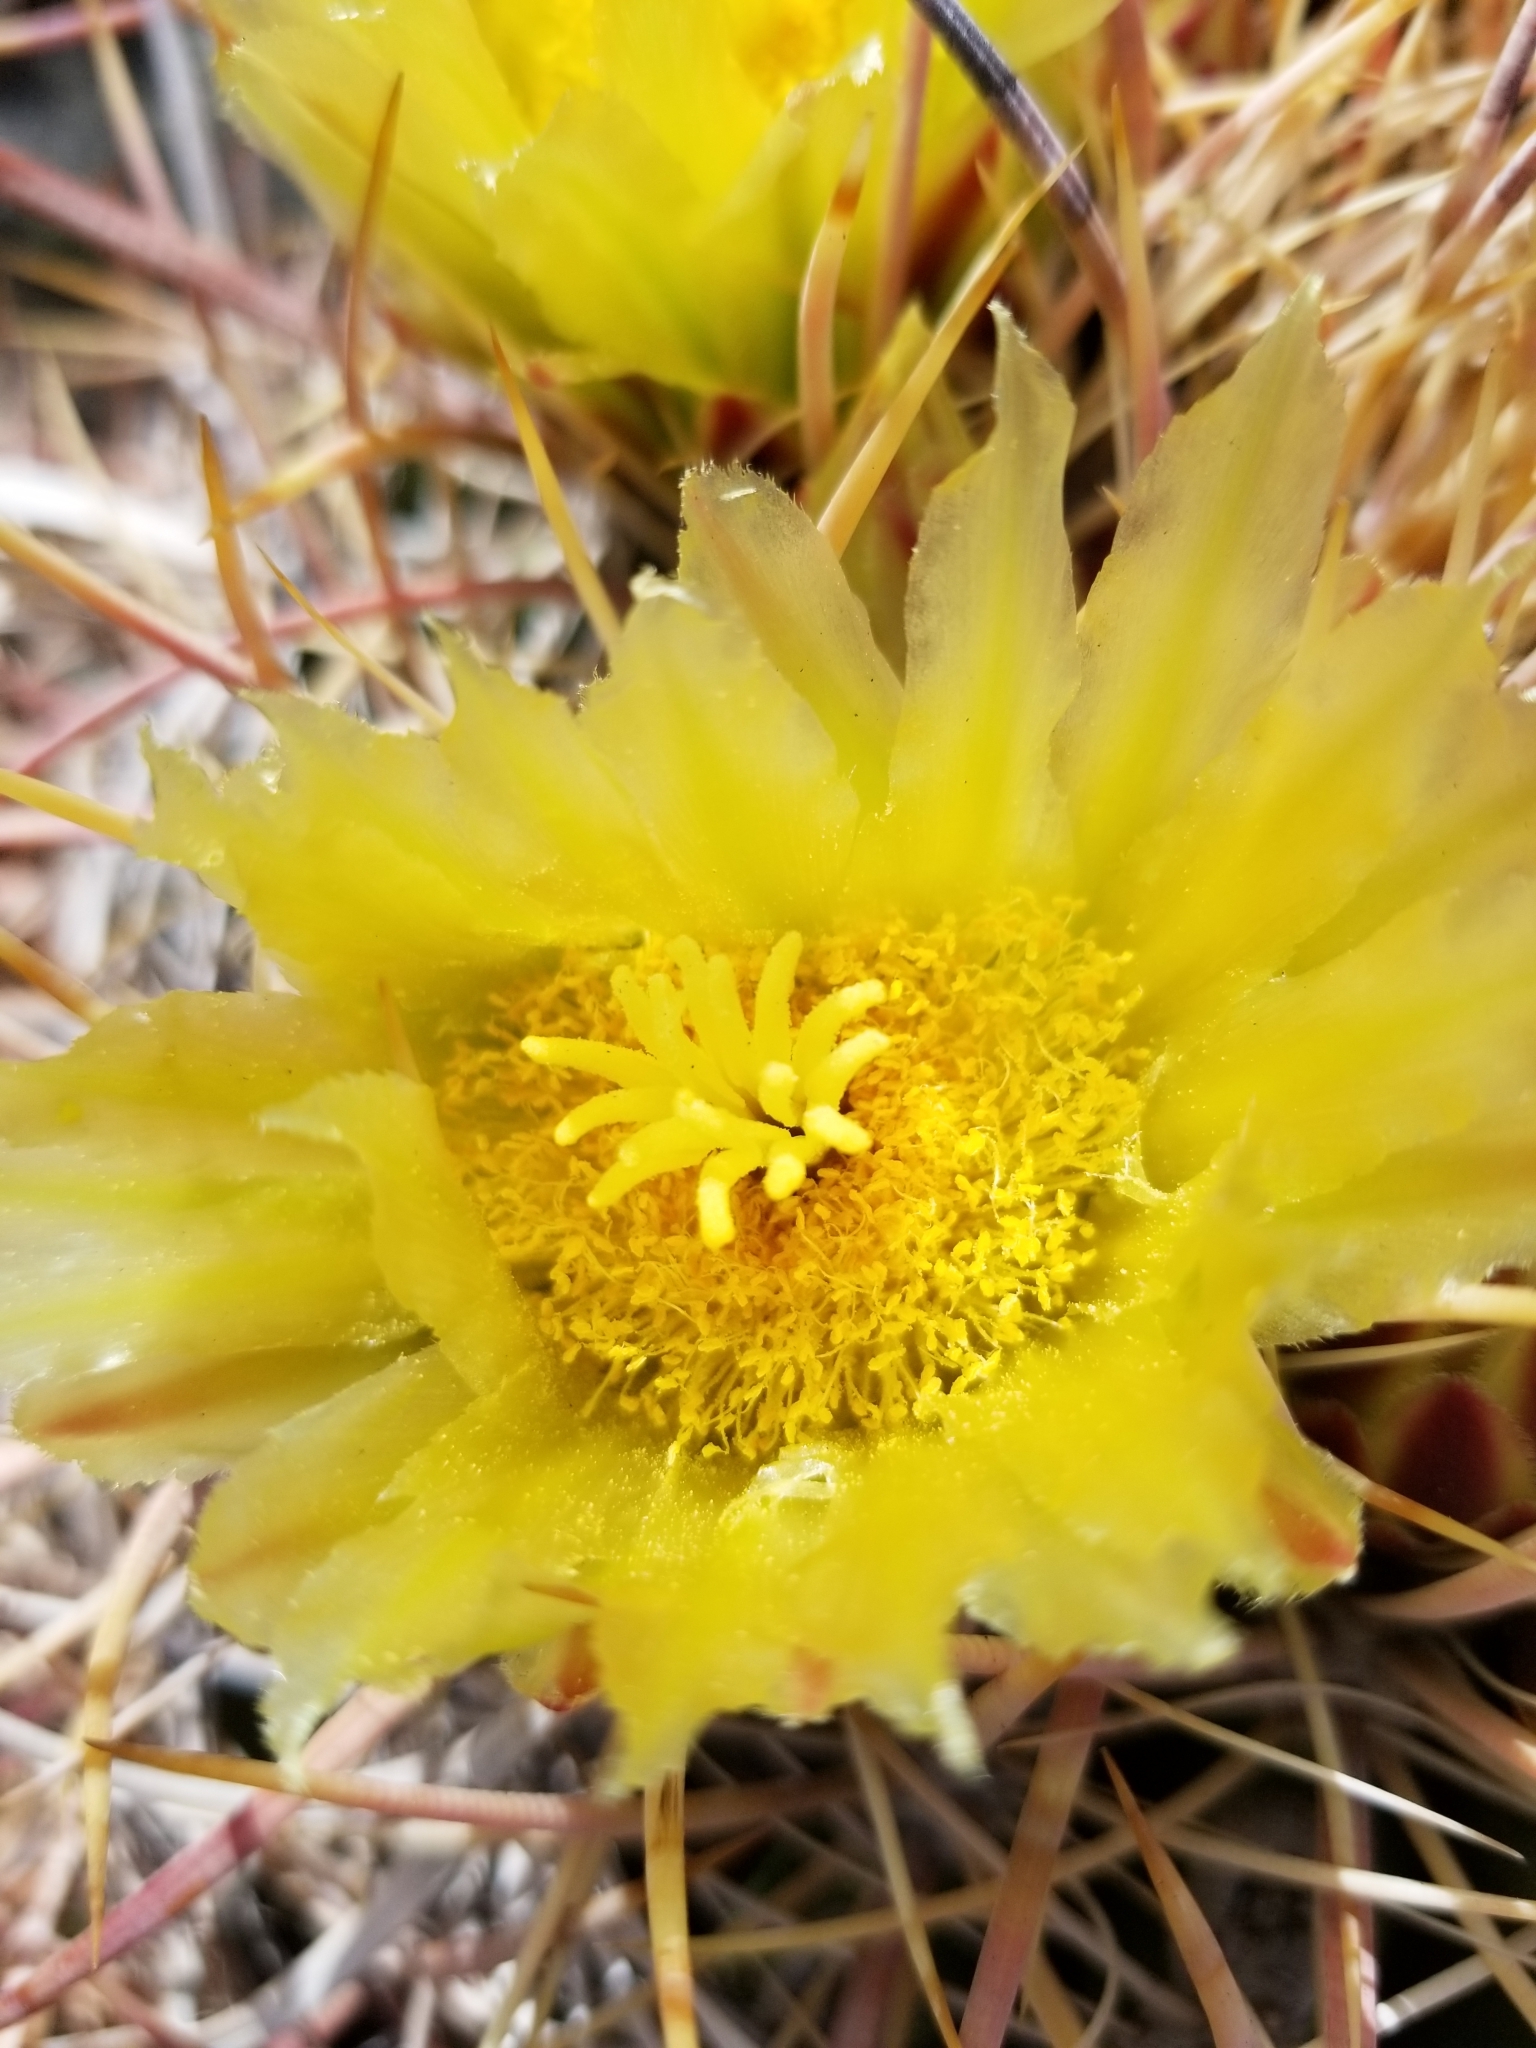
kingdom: Plantae
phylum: Tracheophyta
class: Magnoliopsida
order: Caryophyllales
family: Cactaceae
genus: Ferocactus
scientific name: Ferocactus cylindraceus
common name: California barrel cactus
